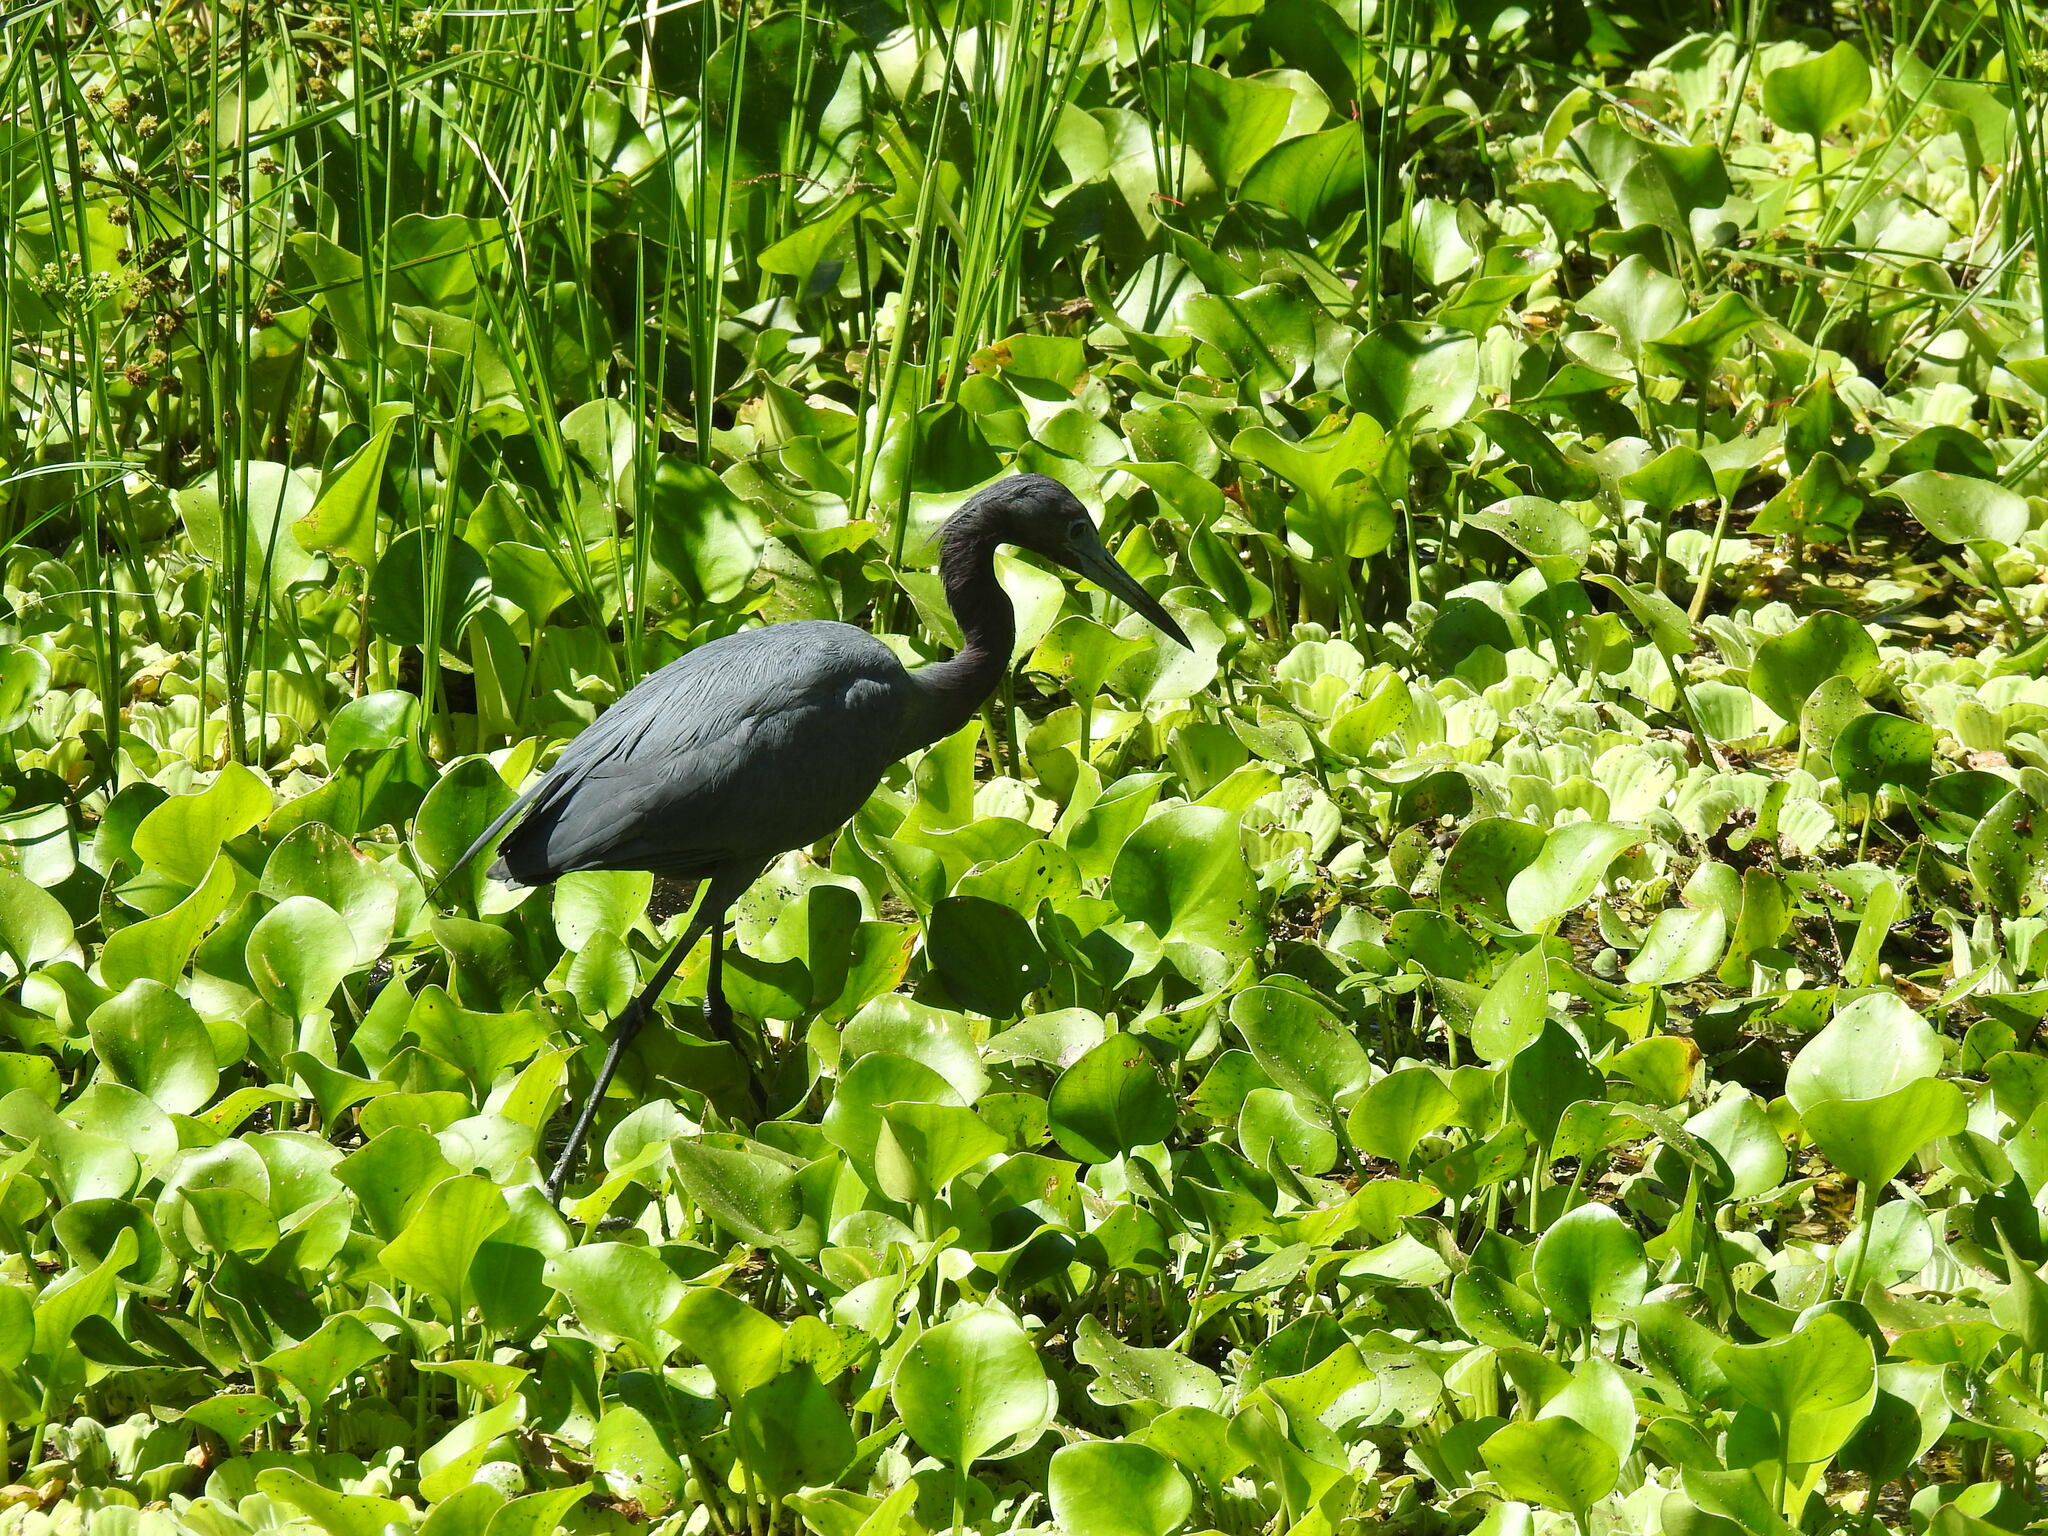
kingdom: Animalia
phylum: Chordata
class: Aves
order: Pelecaniformes
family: Ardeidae
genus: Egretta
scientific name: Egretta caerulea
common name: Little blue heron
